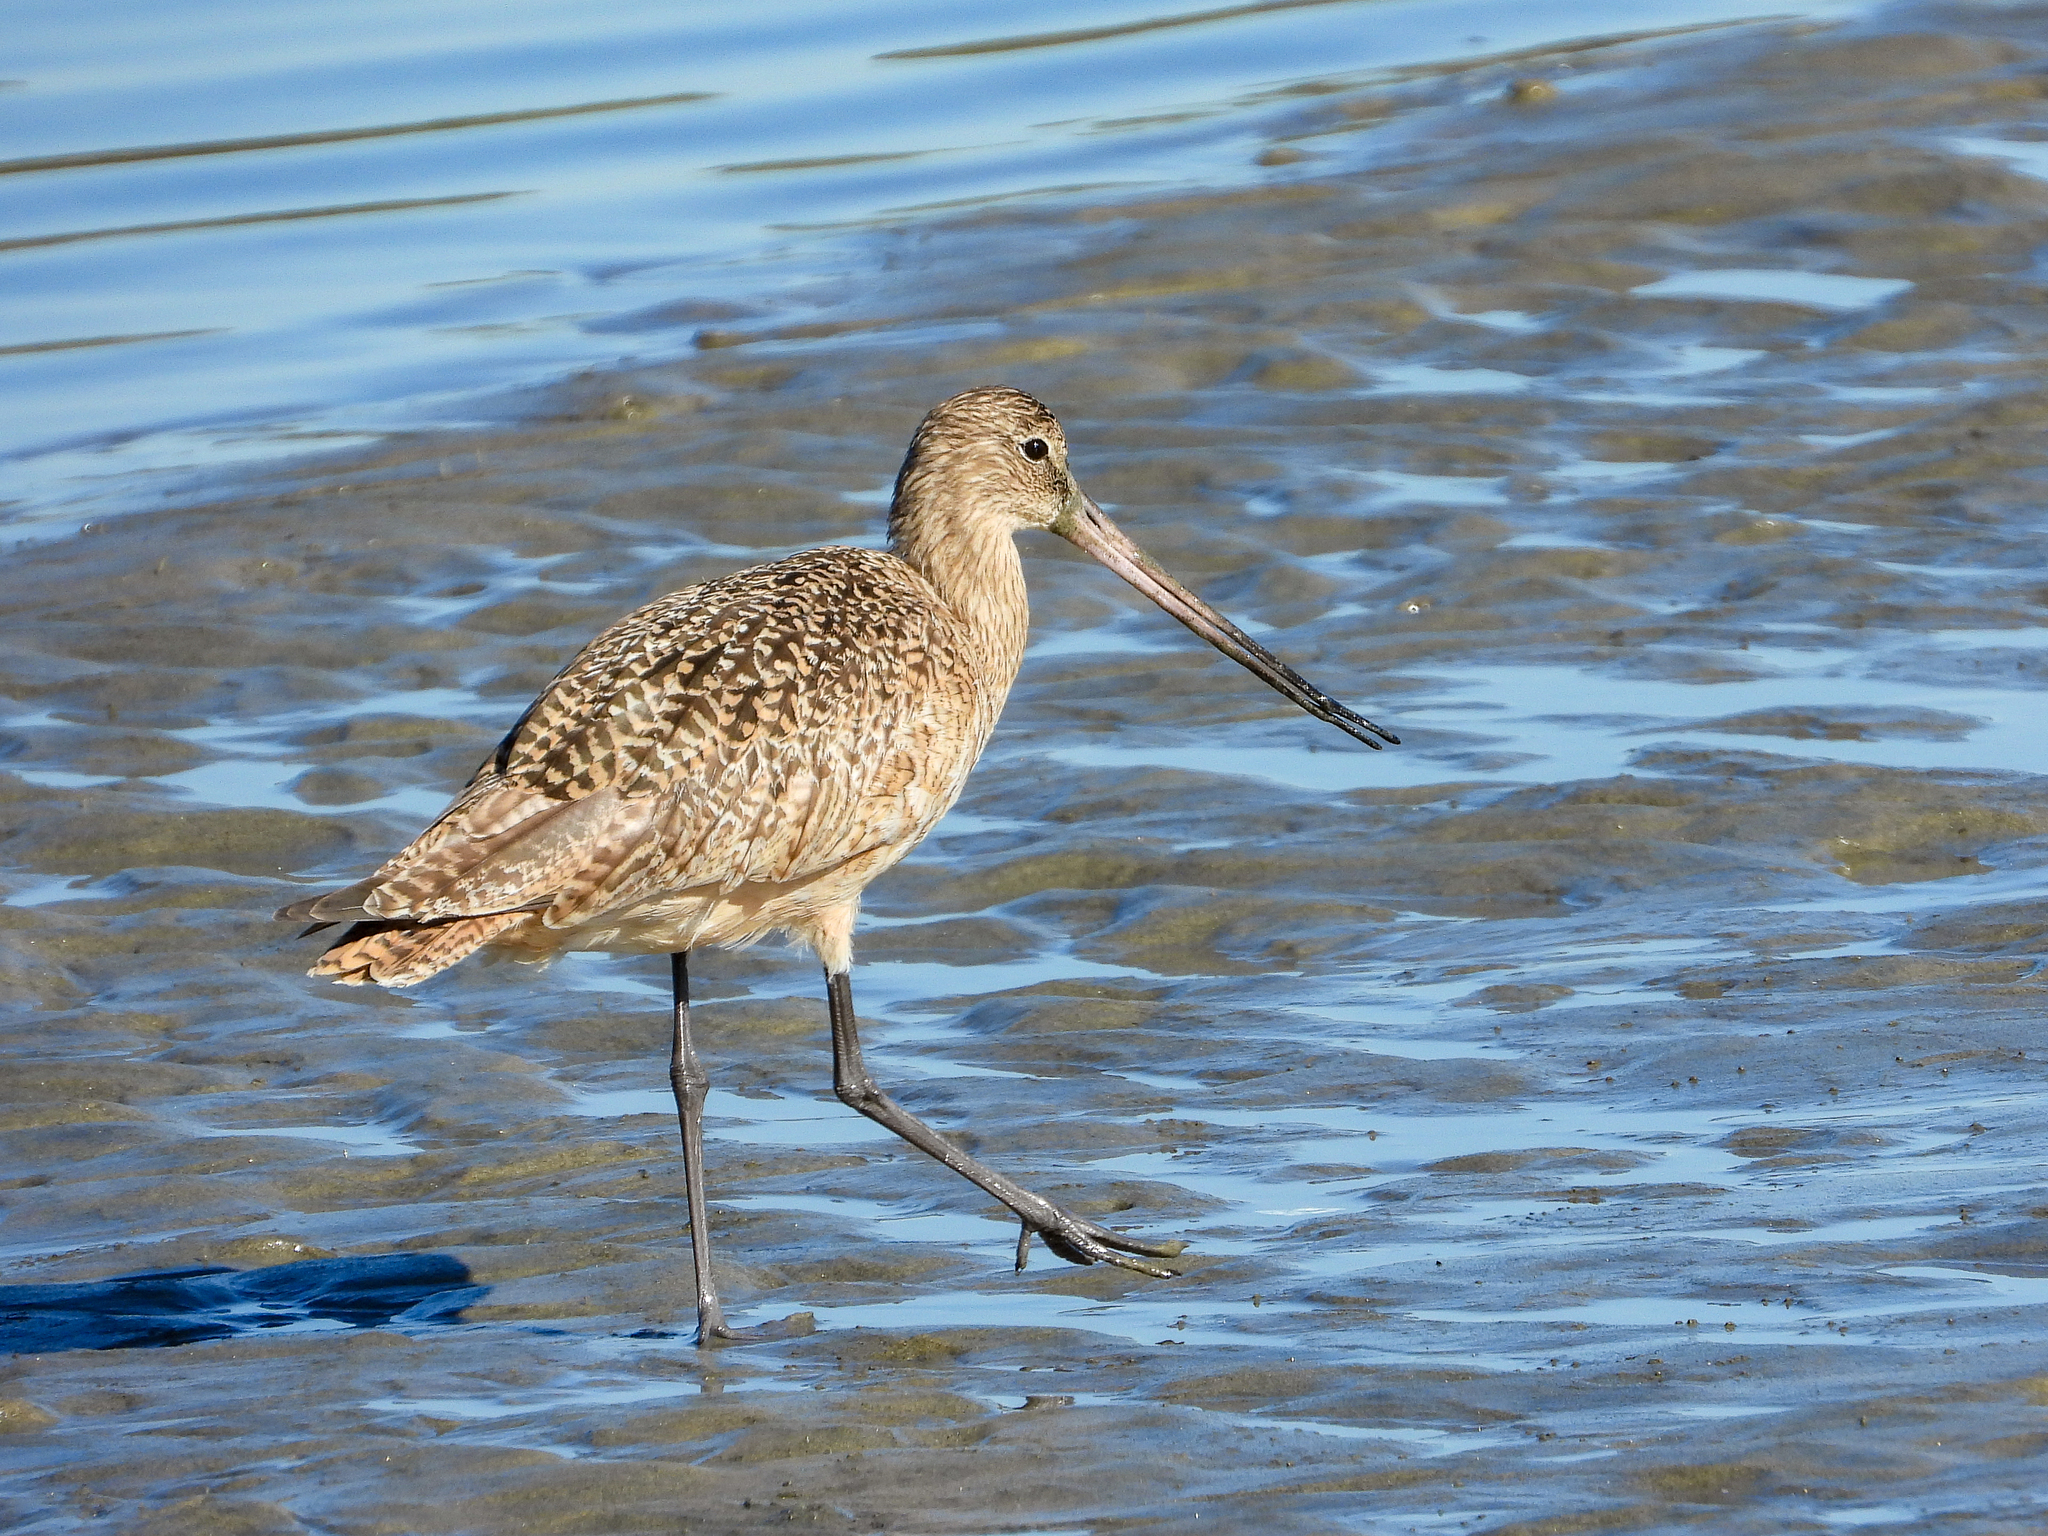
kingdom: Animalia
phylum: Chordata
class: Aves
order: Charadriiformes
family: Scolopacidae
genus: Limosa
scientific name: Limosa fedoa
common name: Marbled godwit
